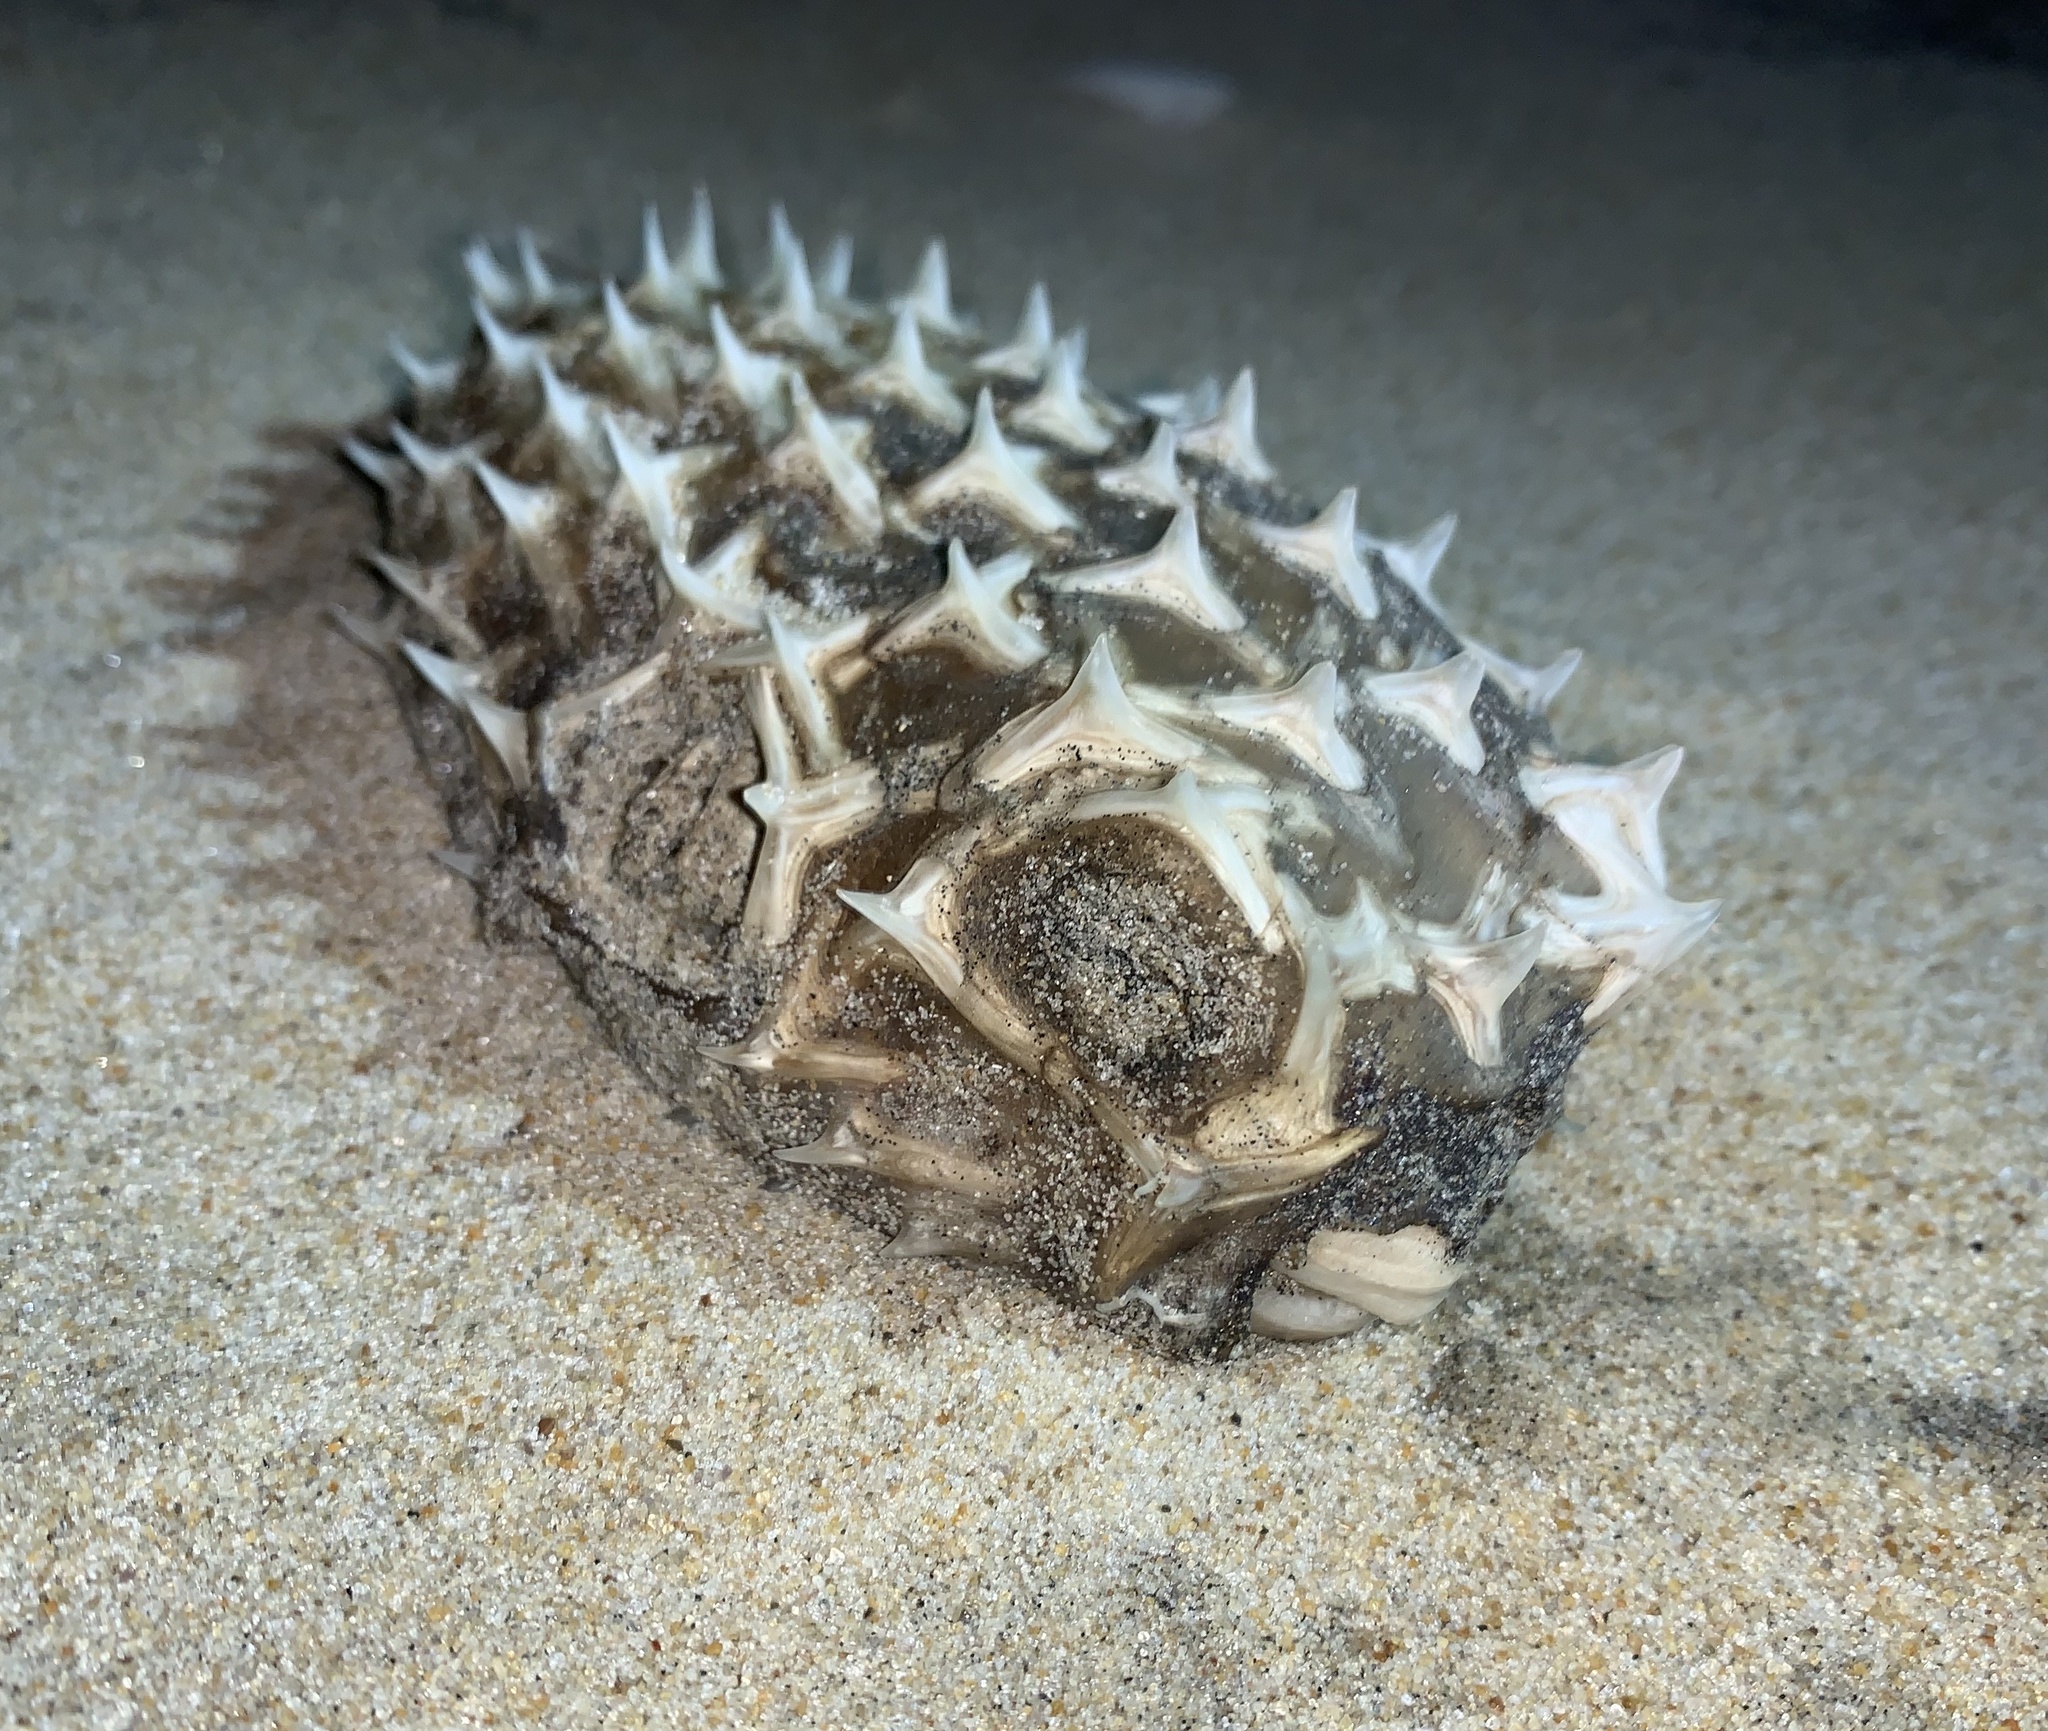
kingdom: Animalia
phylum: Chordata
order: Tetraodontiformes
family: Diodontidae
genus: Chilomycterus
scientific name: Chilomycterus schoepfii
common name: Striped burrfish
